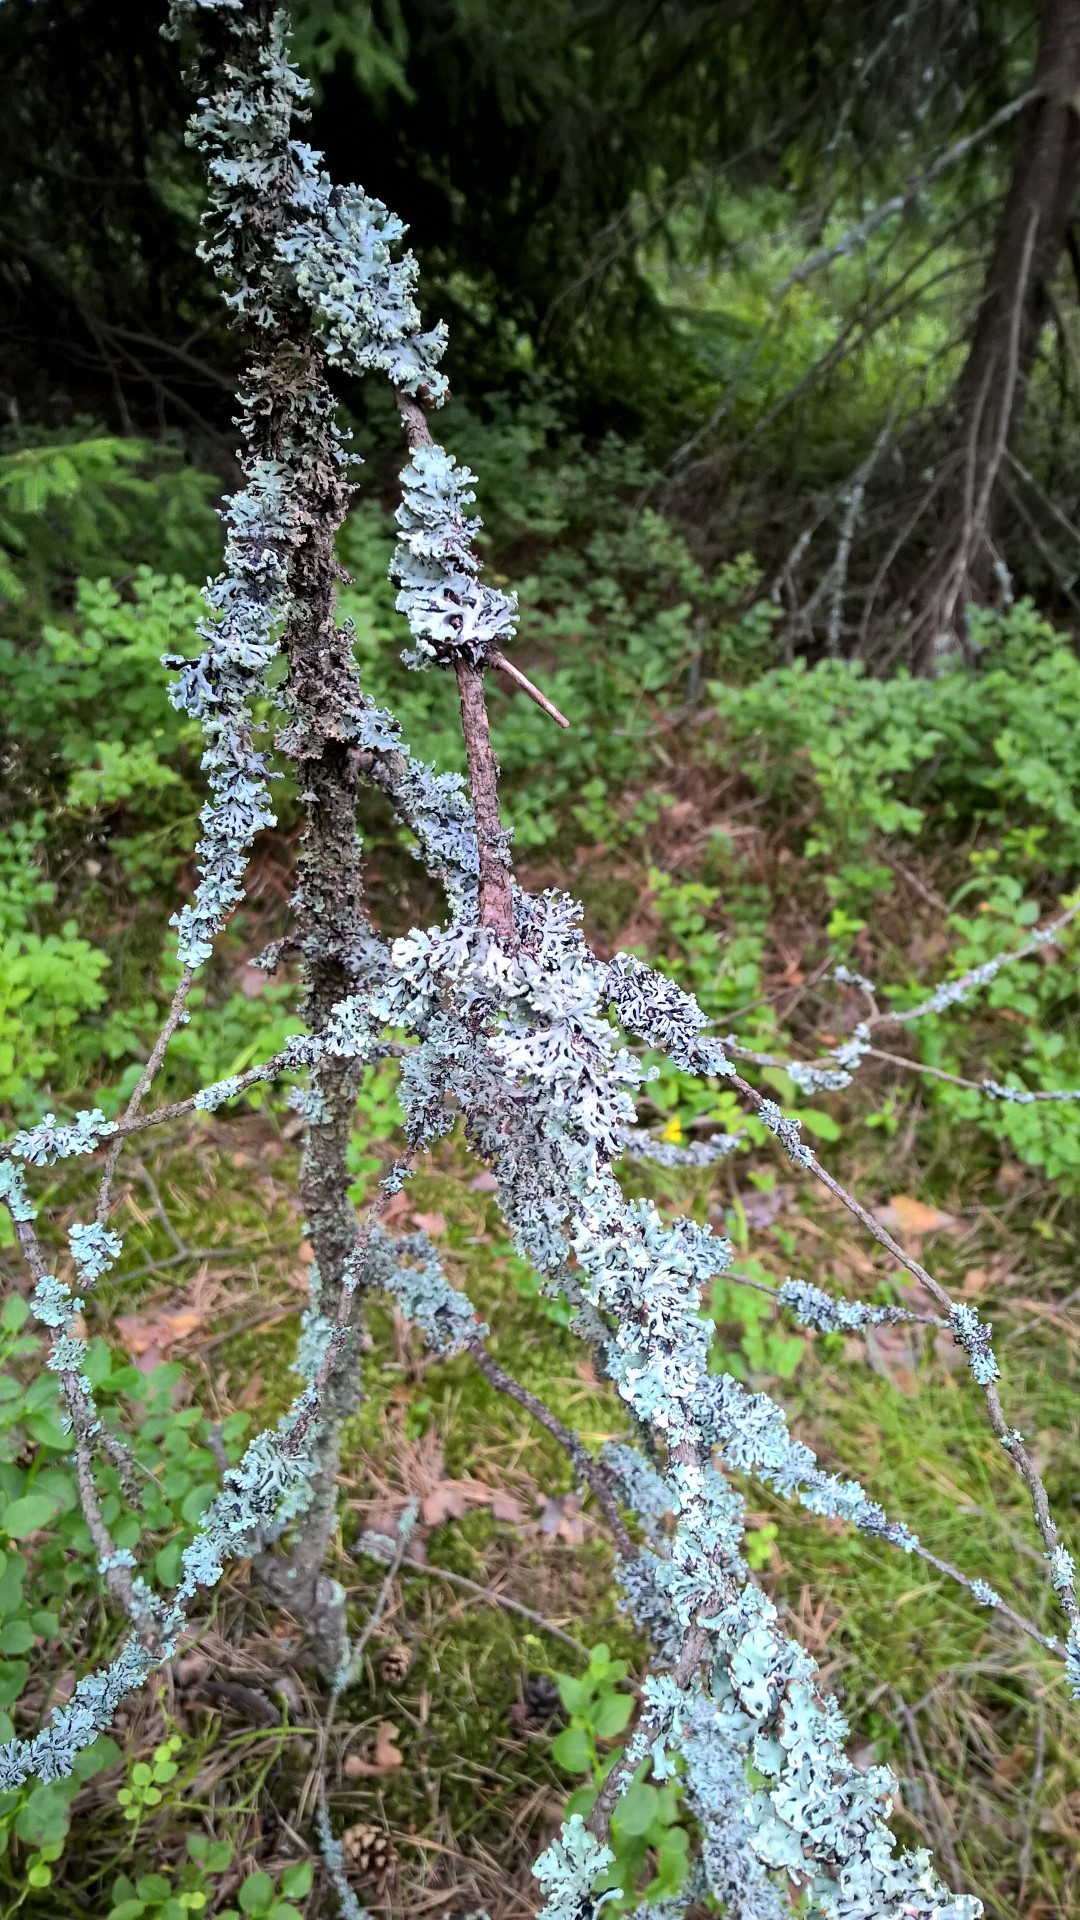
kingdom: Fungi
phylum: Ascomycota
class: Lecanoromycetes
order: Lecanorales
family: Parmeliaceae
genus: Hypogymnia
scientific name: Hypogymnia physodes
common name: Dark crottle
